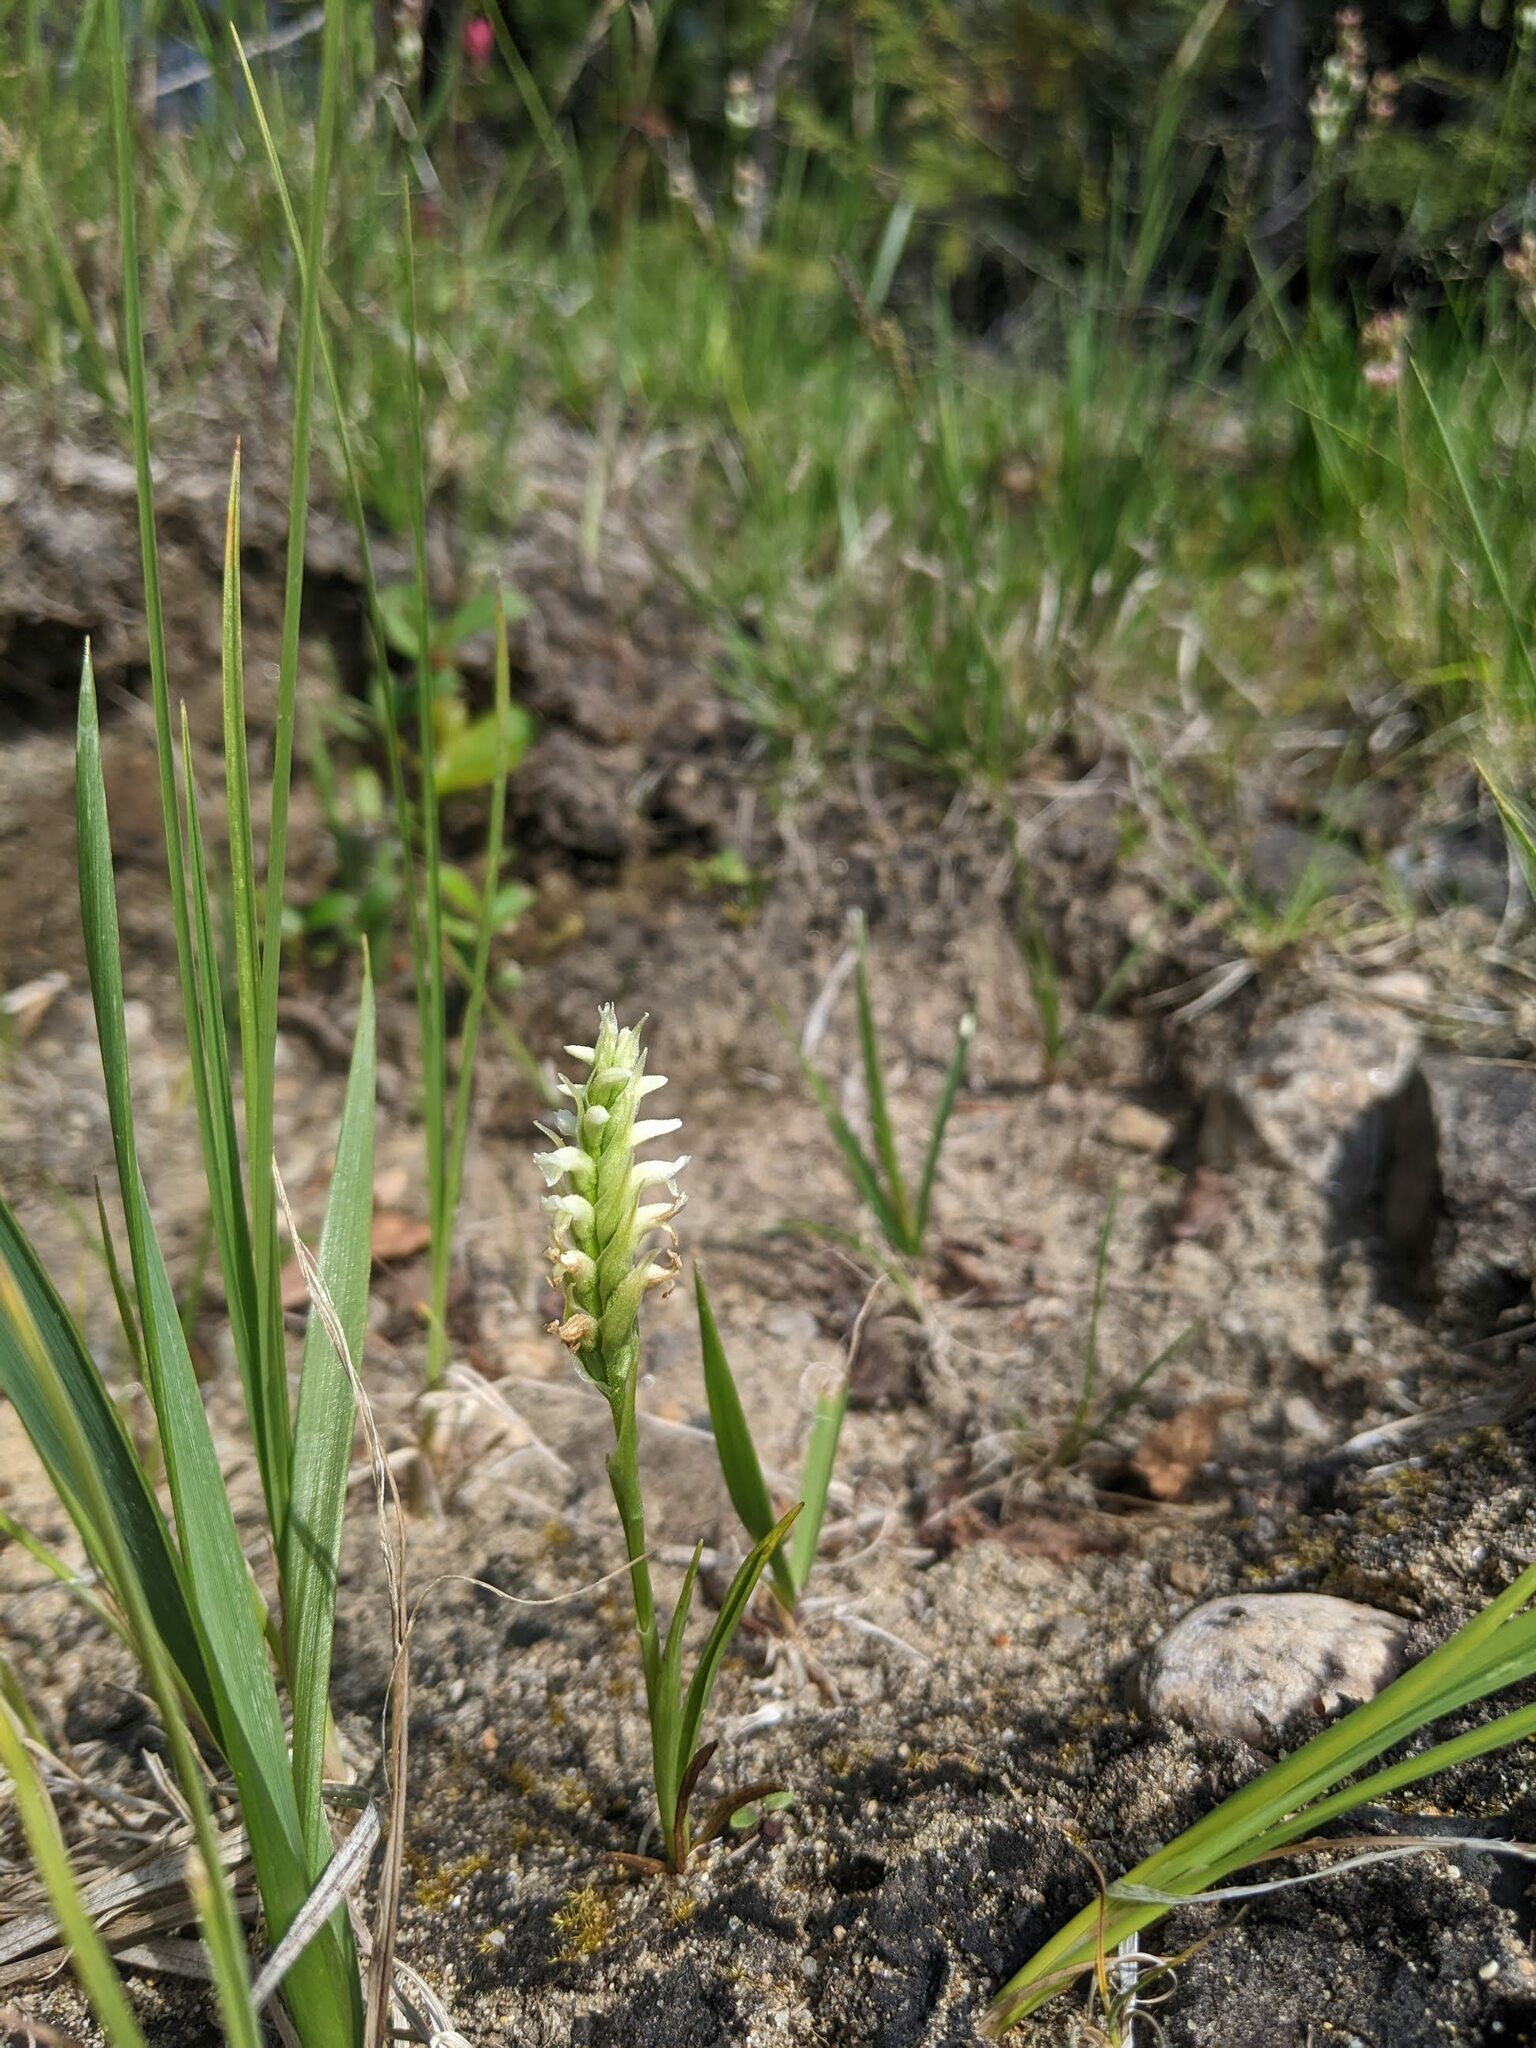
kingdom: Plantae
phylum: Tracheophyta
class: Liliopsida
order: Asparagales
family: Orchidaceae
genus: Spiranthes
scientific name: Spiranthes romanzoffiana
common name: Irish lady's-tresses
